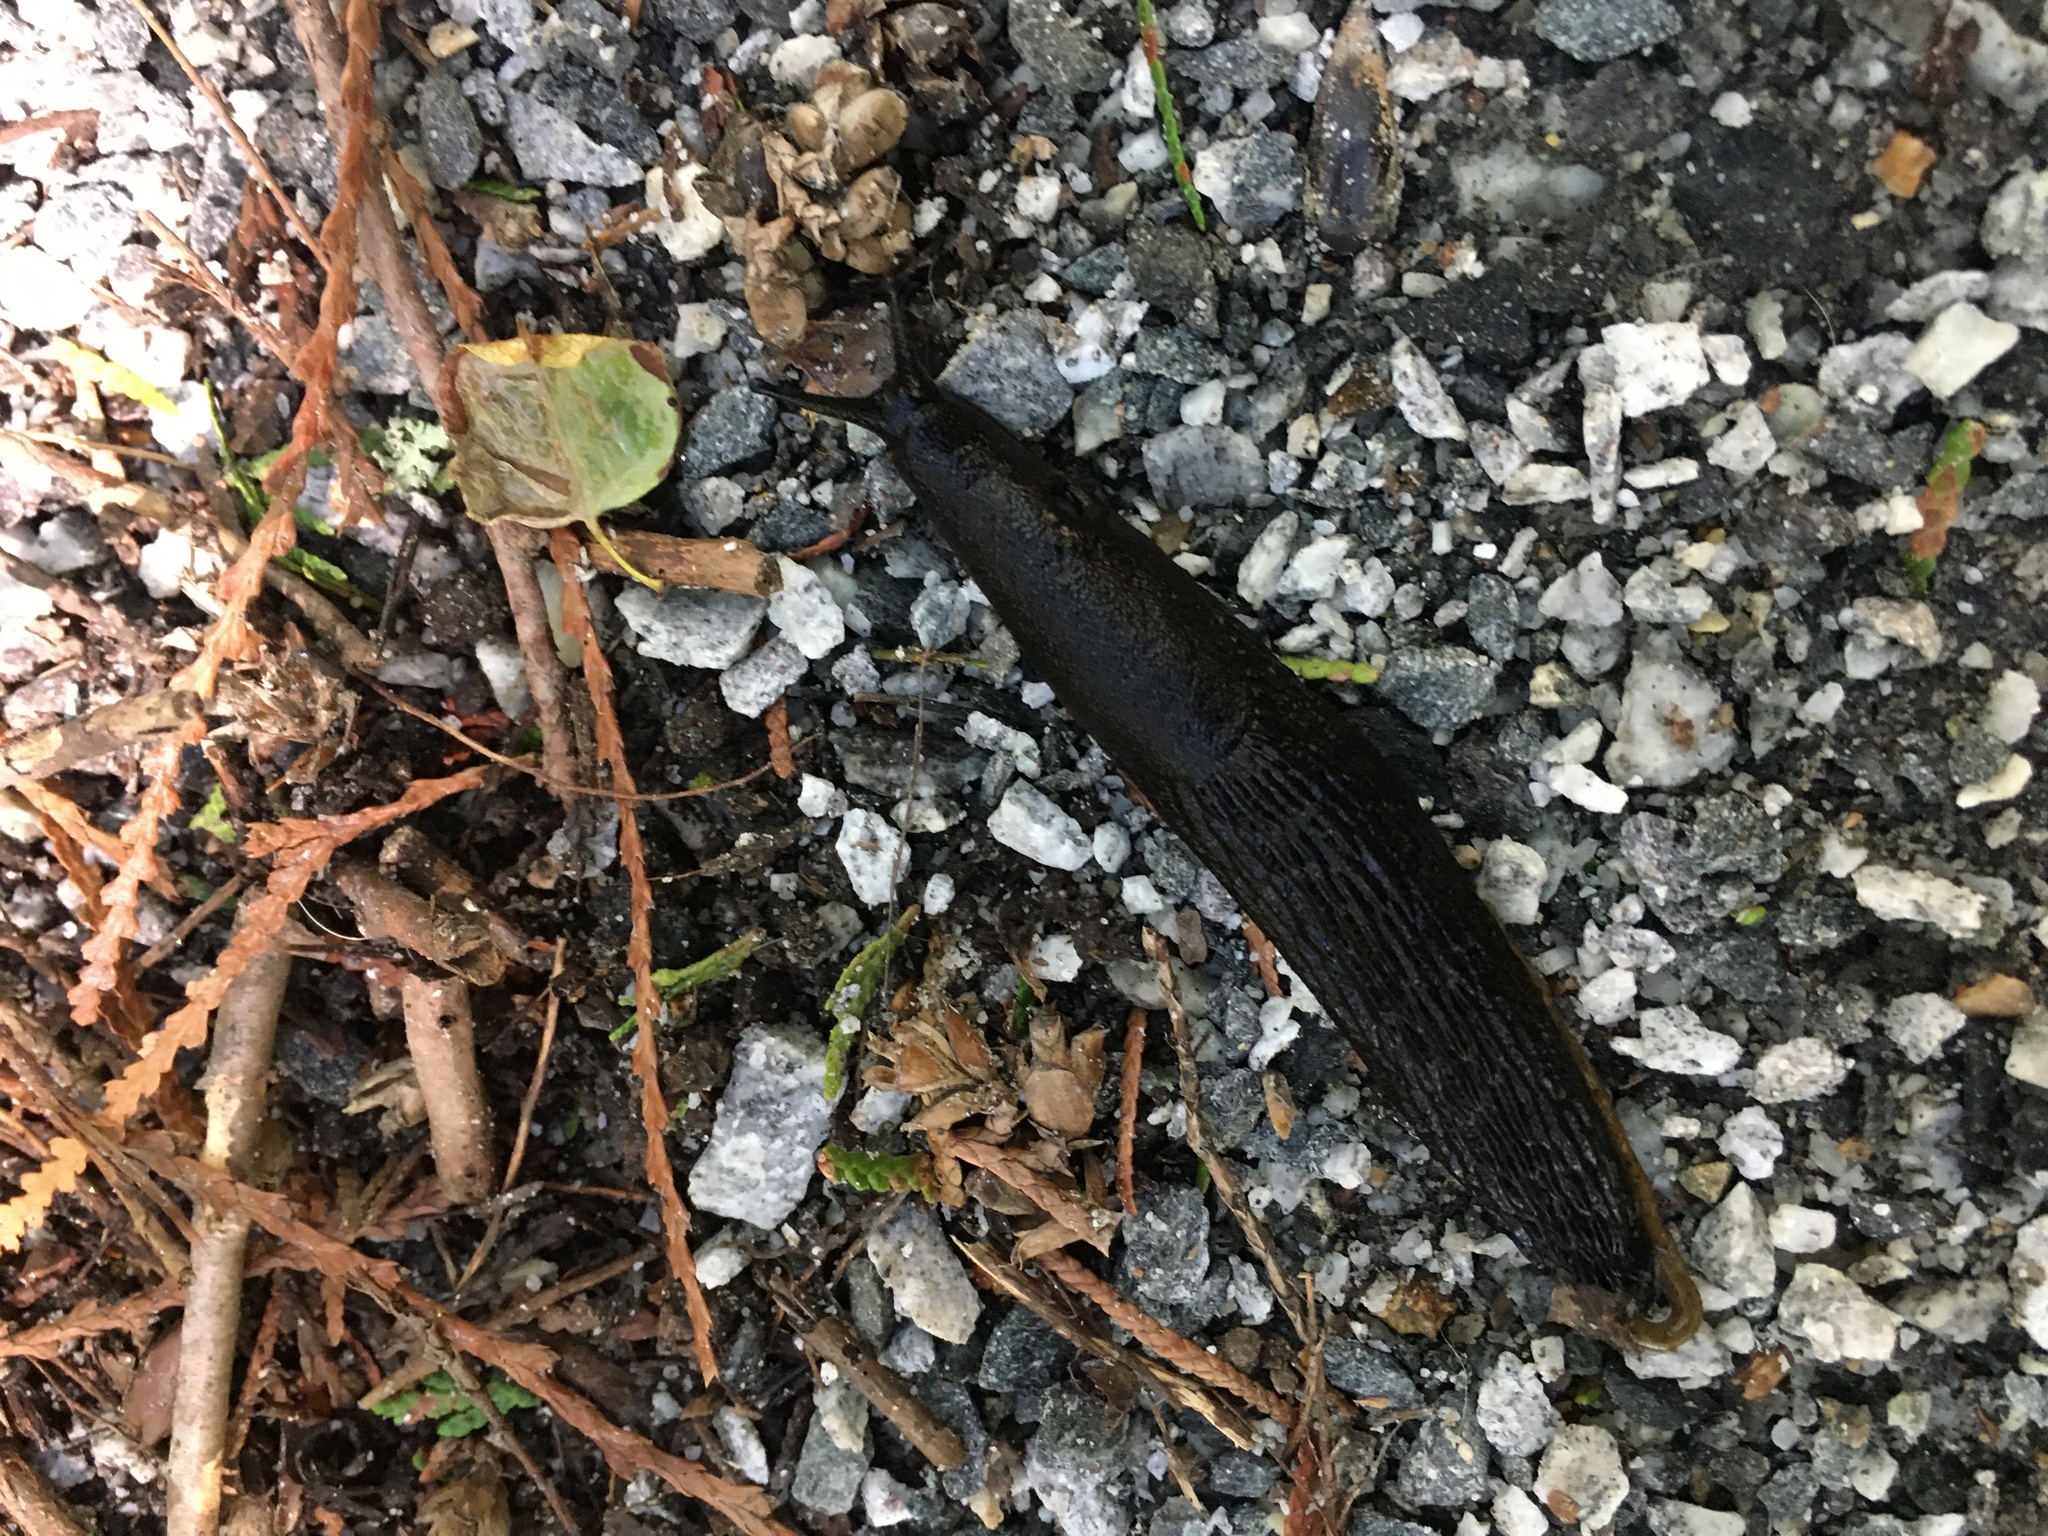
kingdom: Animalia
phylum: Mollusca
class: Gastropoda
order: Stylommatophora
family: Arionidae
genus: Arion
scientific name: Arion
